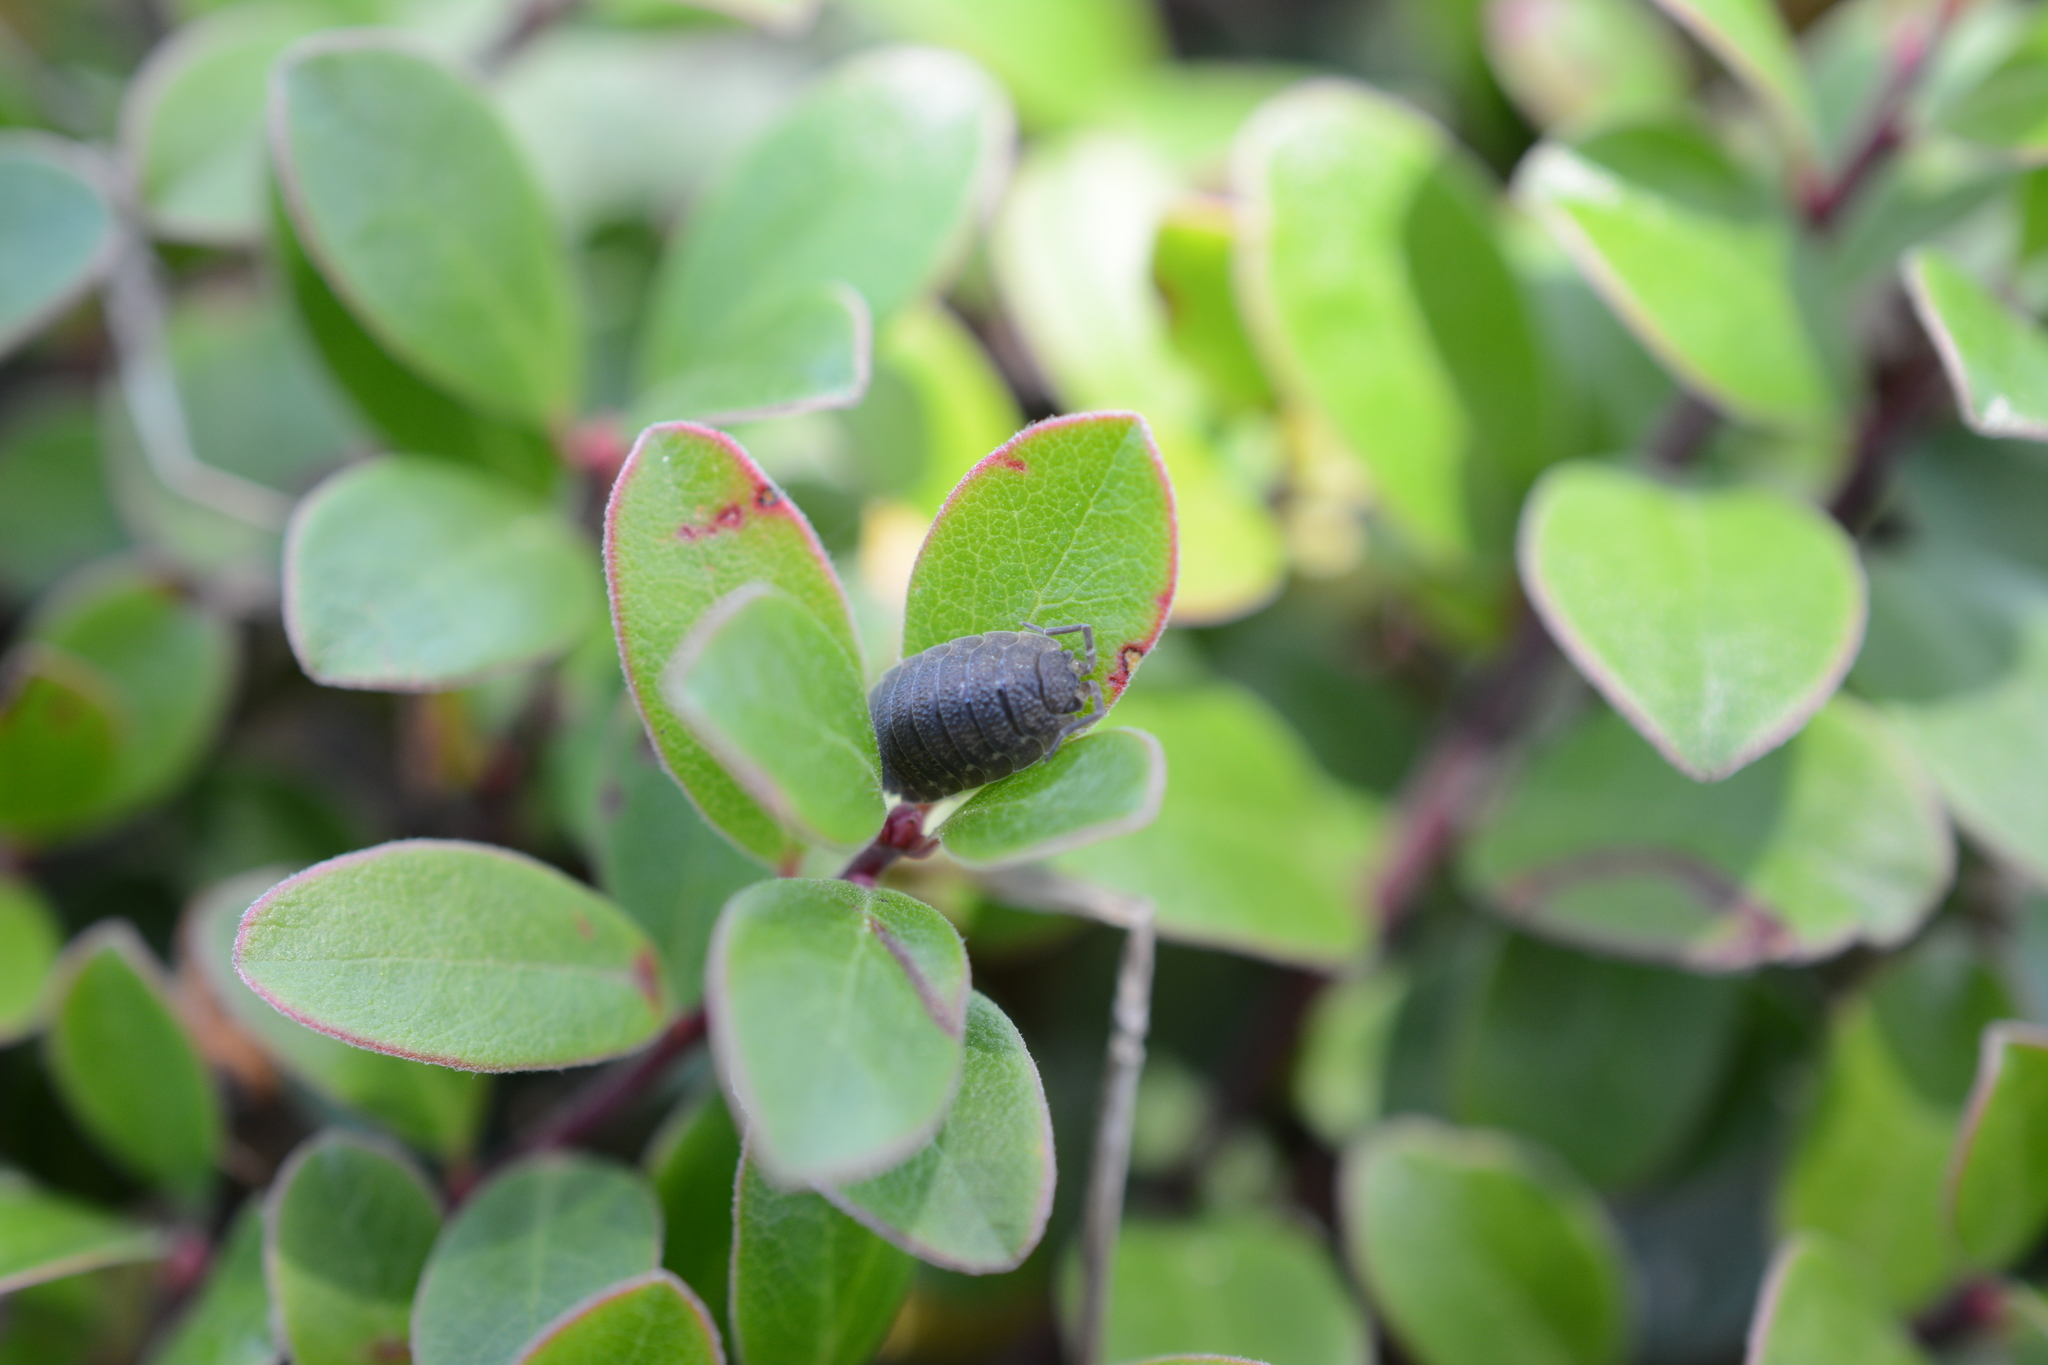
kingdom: Animalia
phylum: Arthropoda
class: Malacostraca
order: Isopoda
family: Porcellionidae
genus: Porcellio
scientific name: Porcellio scaber
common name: Common rough woodlouse
